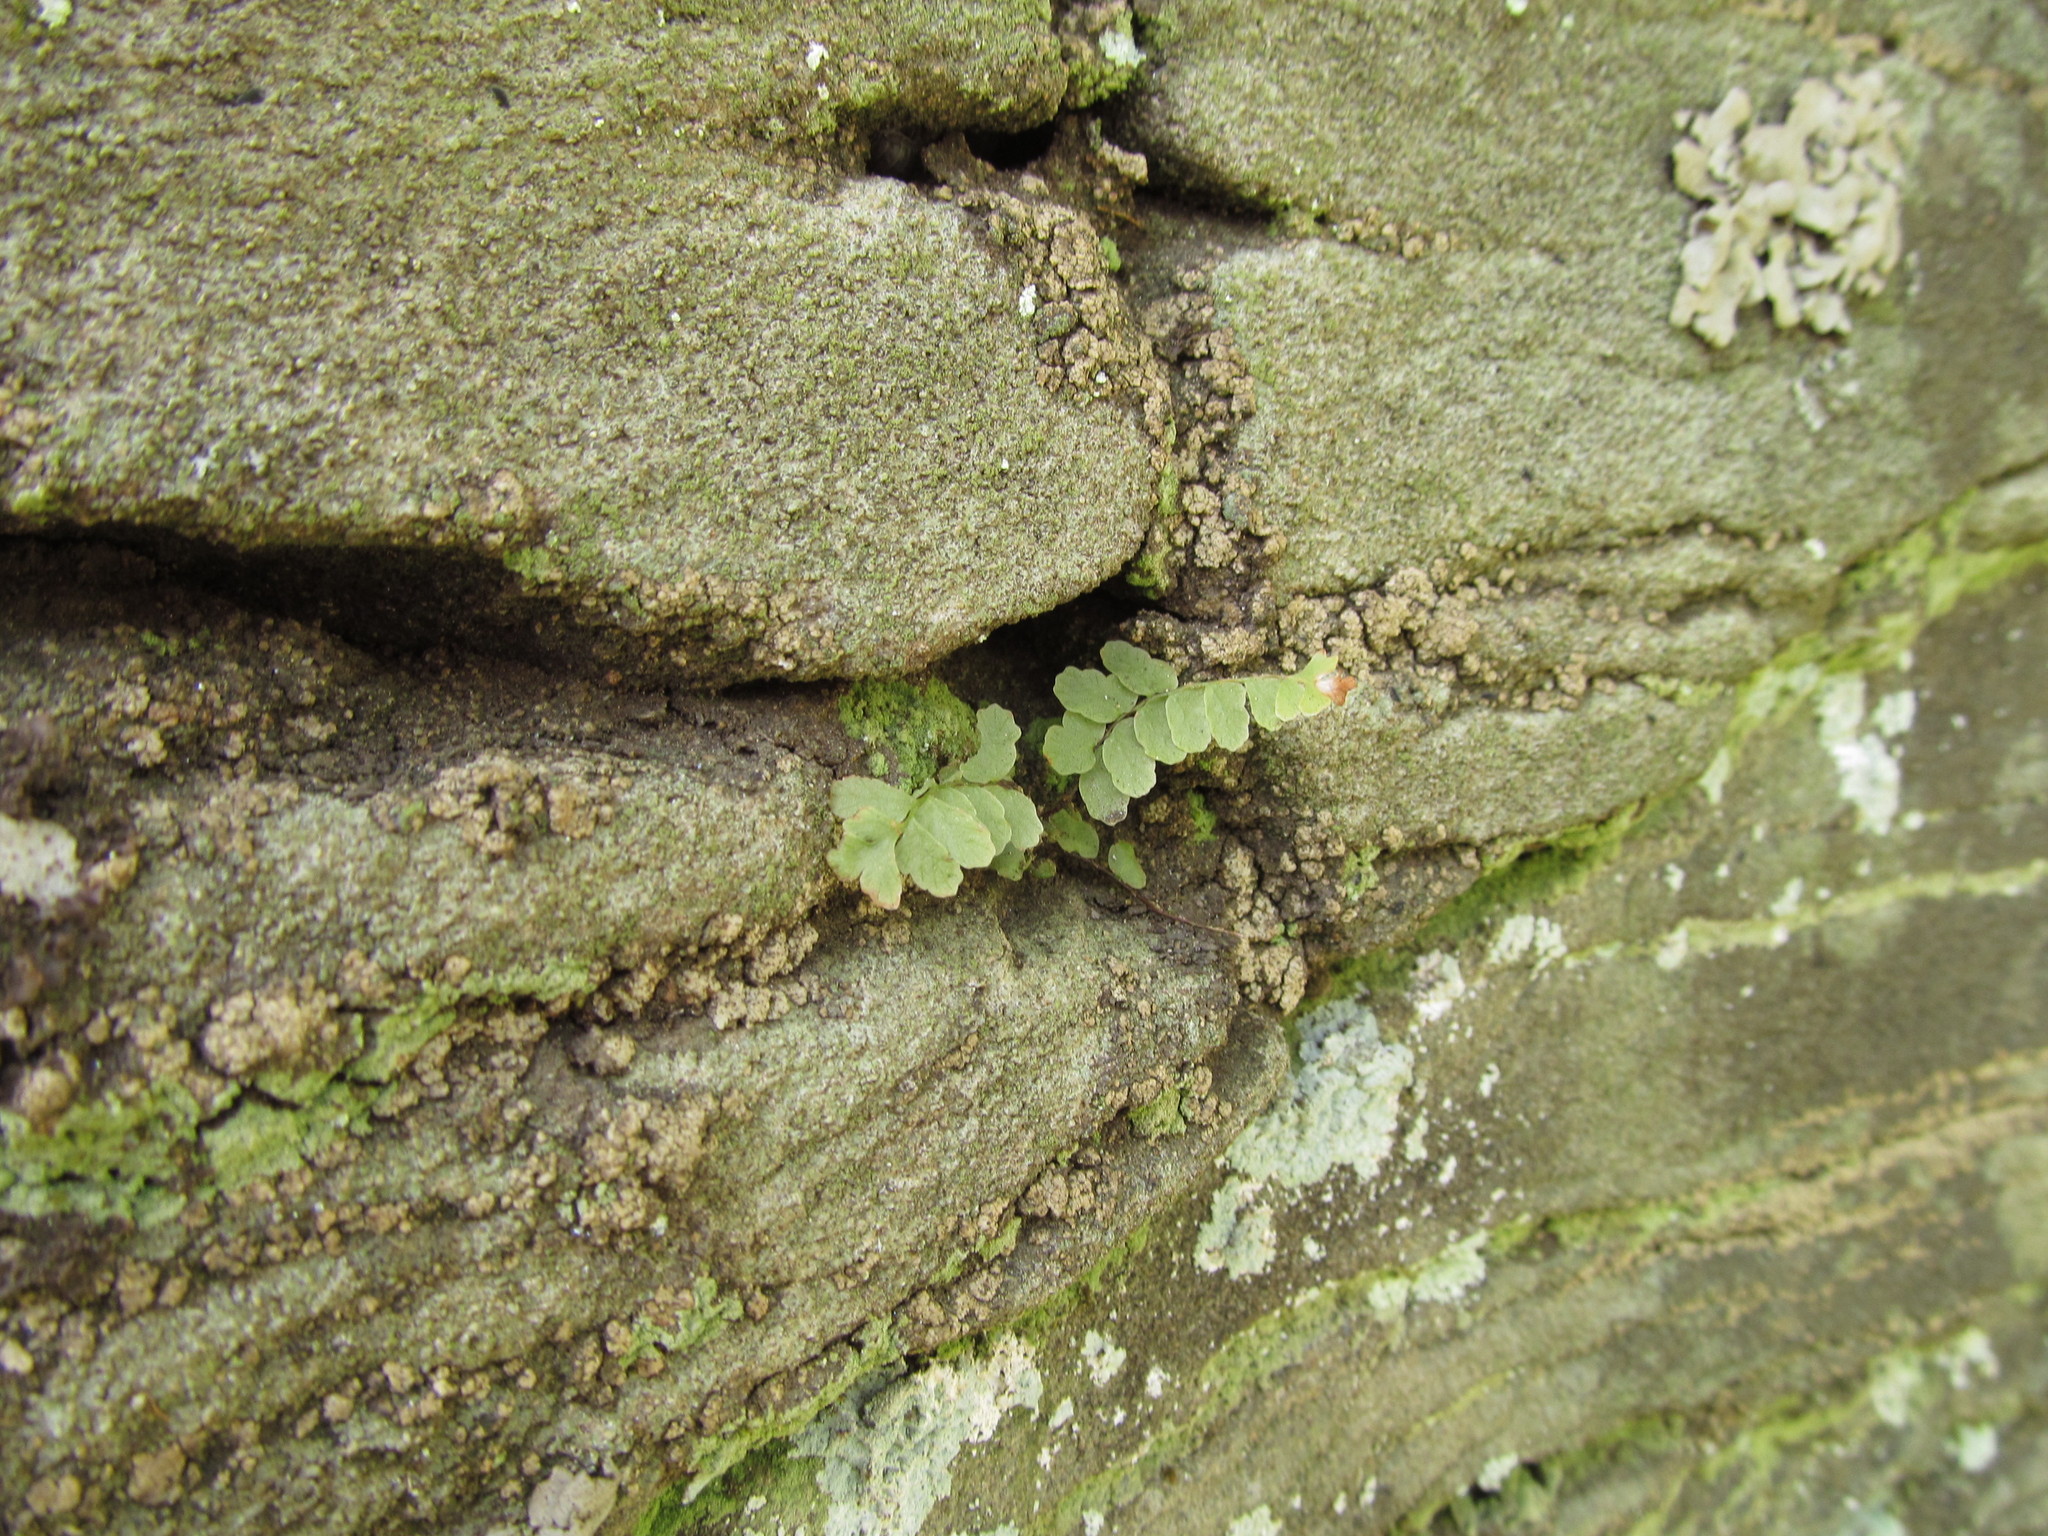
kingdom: Plantae
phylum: Tracheophyta
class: Polypodiopsida
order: Polypodiales
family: Aspleniaceae
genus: Asplenium
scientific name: Asplenium platyneuron
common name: Ebony spleenwort
